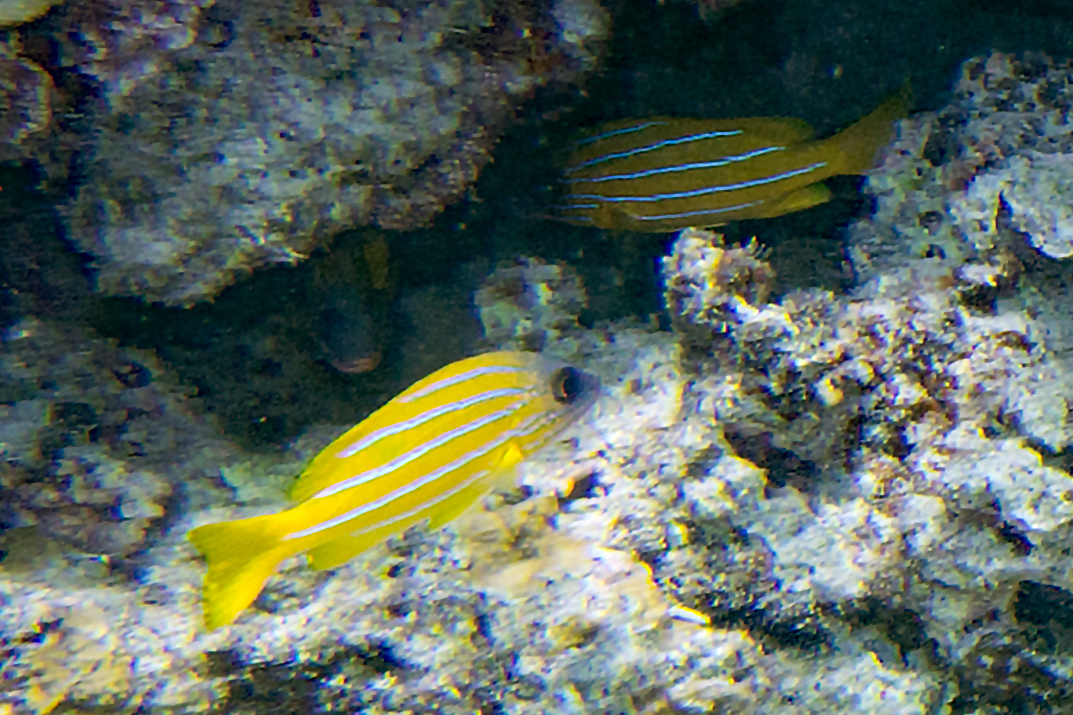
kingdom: Animalia
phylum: Chordata
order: Perciformes
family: Lutjanidae
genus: Lutjanus
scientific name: Lutjanus quinquelineatus
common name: Five-lined snapper
